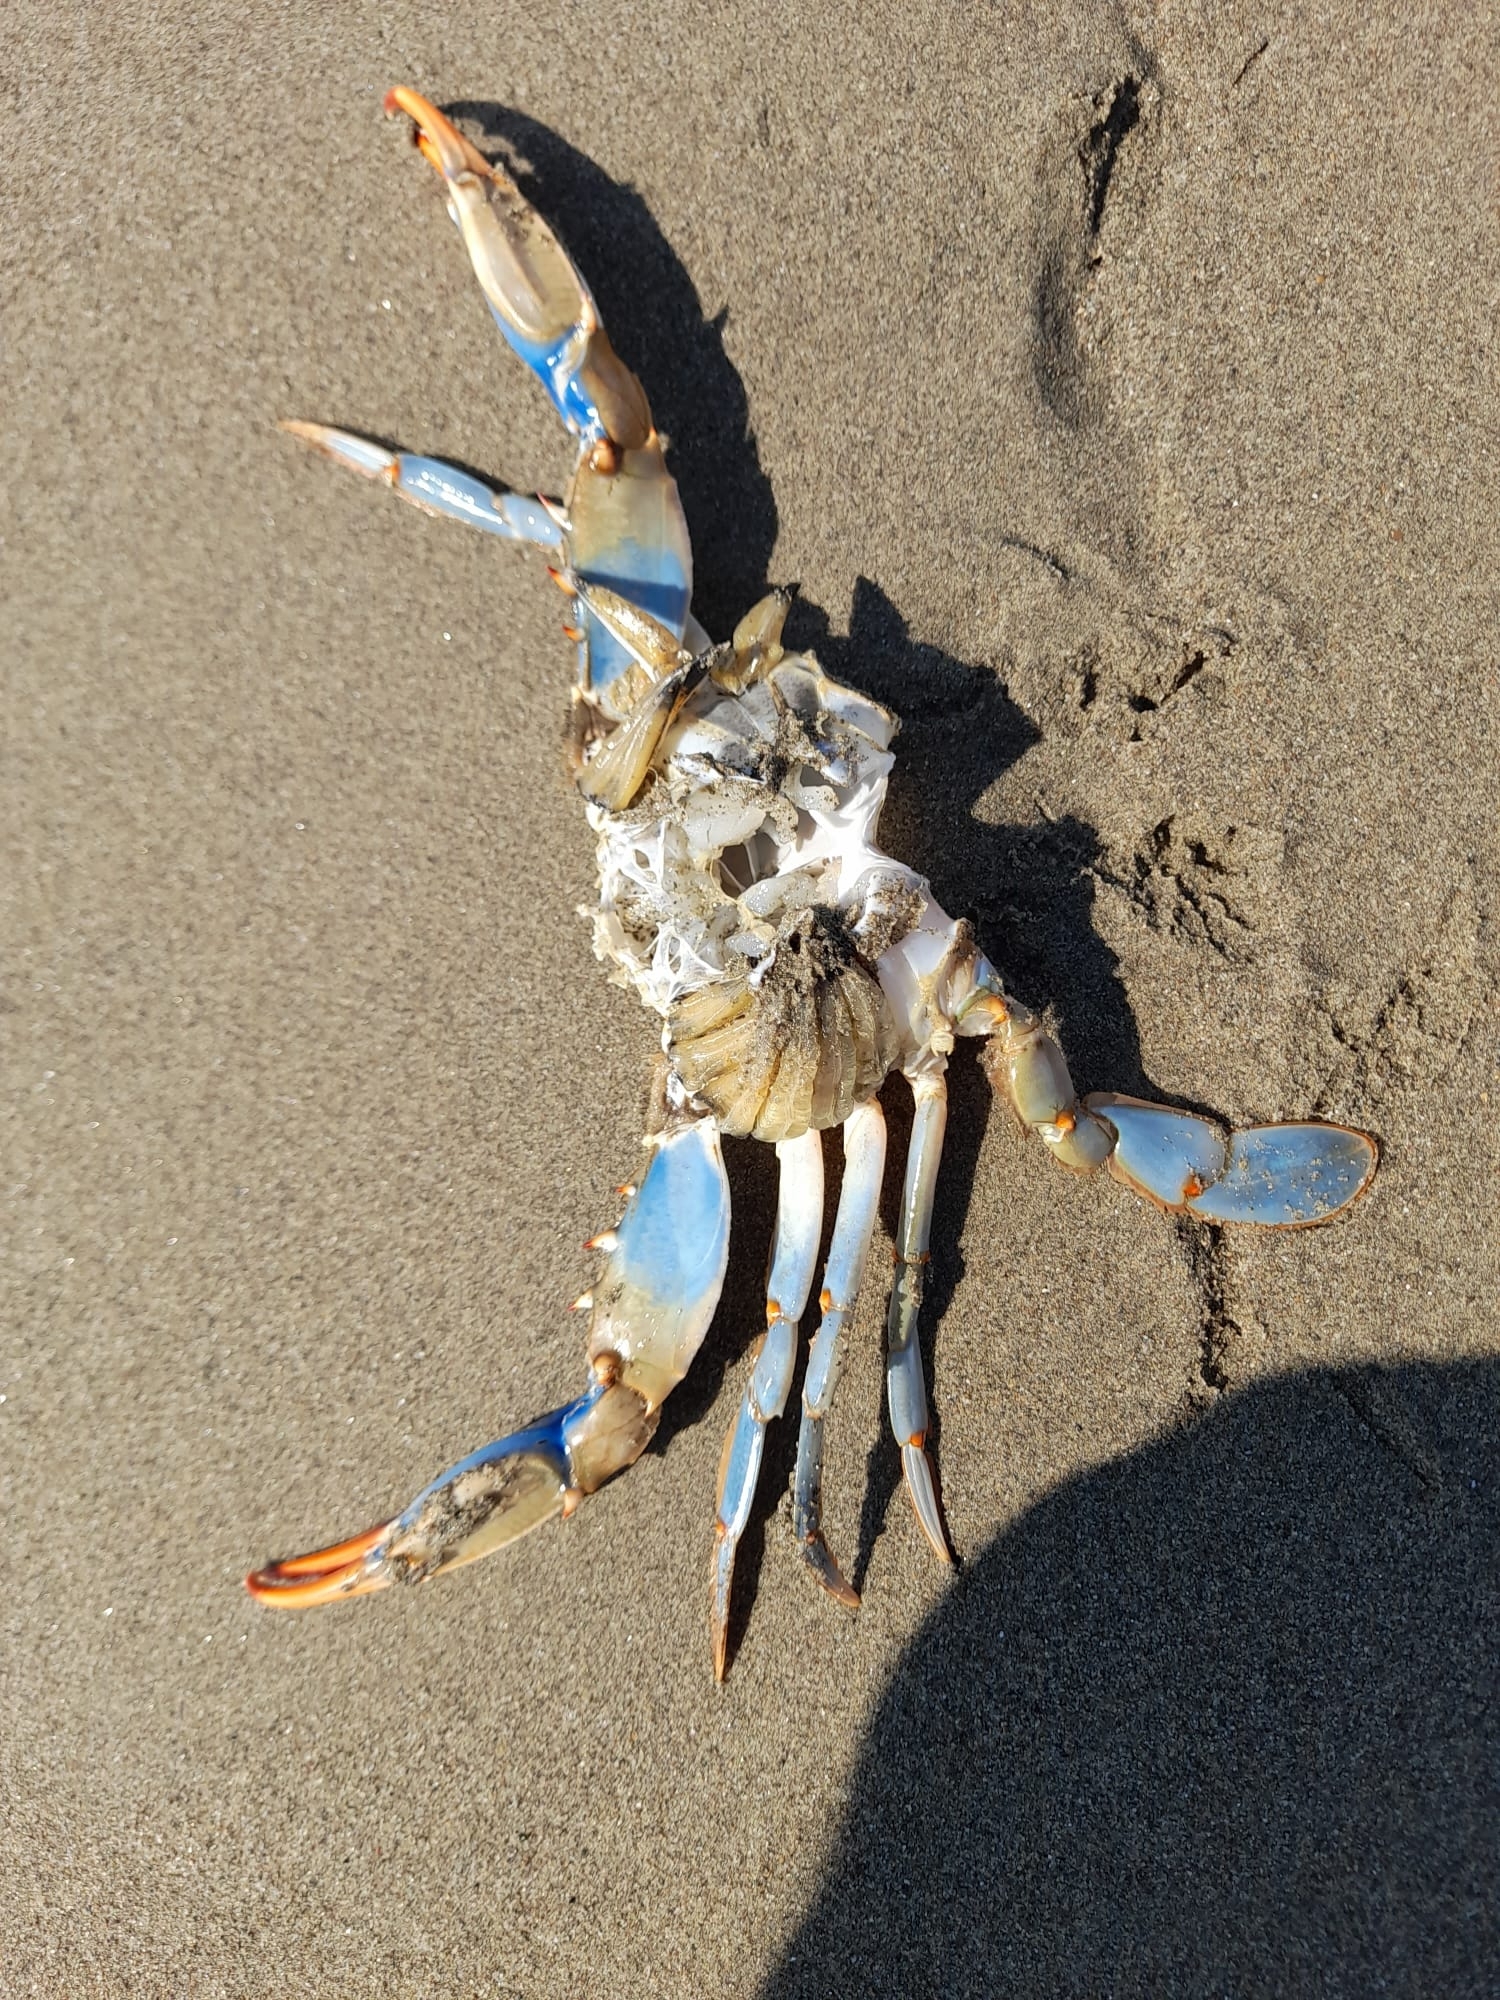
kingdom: Animalia
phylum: Arthropoda
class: Malacostraca
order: Decapoda
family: Portunidae
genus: Callinectes
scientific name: Callinectes sapidus
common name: Blue crab
